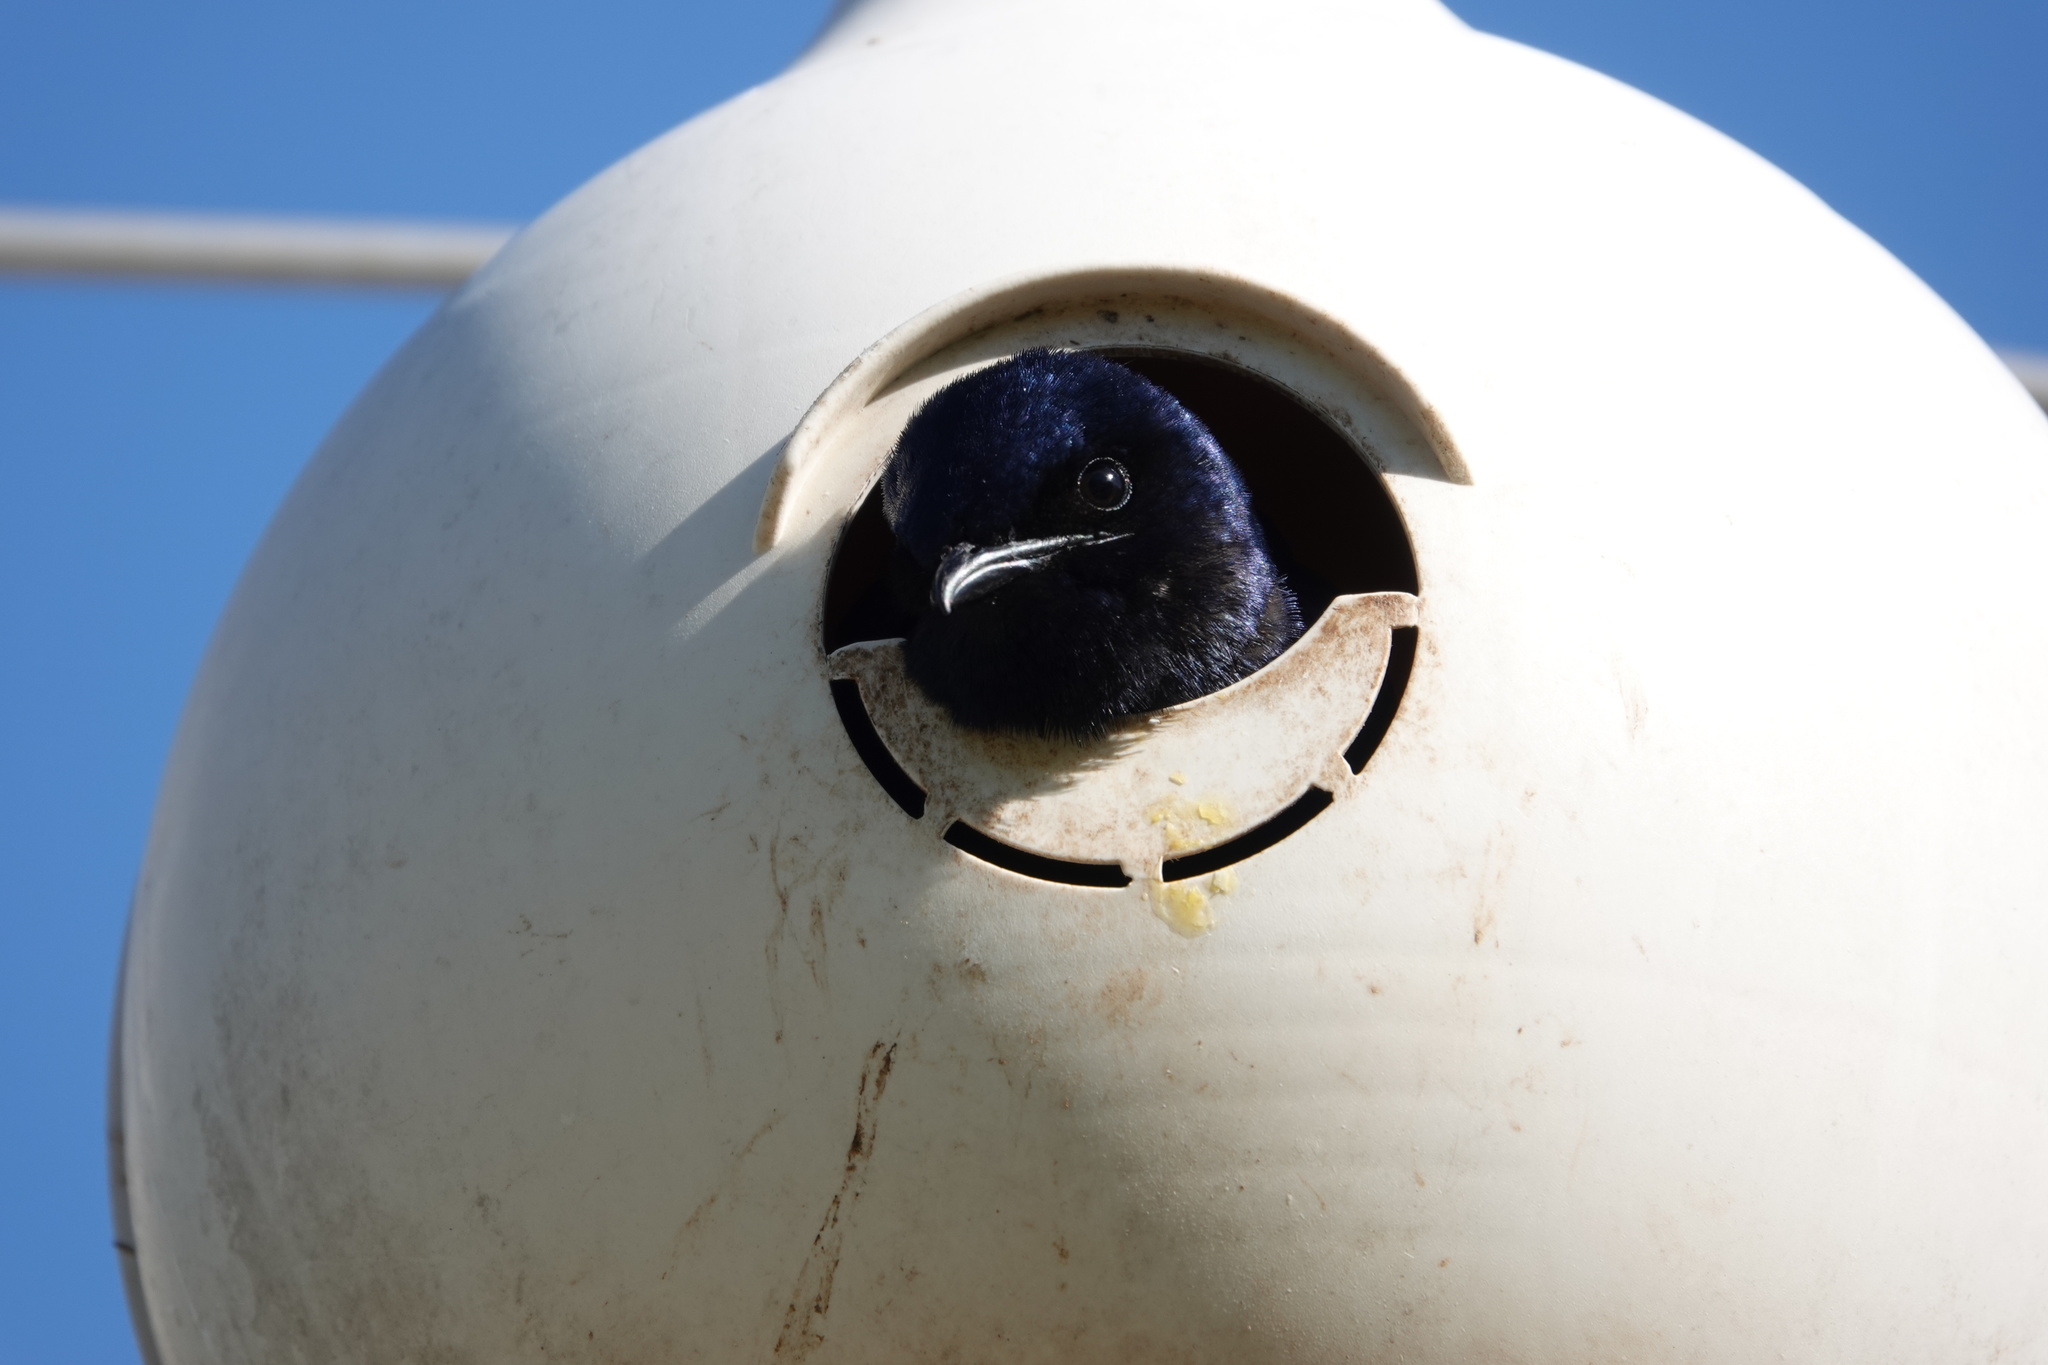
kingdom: Animalia
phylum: Chordata
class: Aves
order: Passeriformes
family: Hirundinidae
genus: Progne
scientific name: Progne subis
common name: Purple martin
